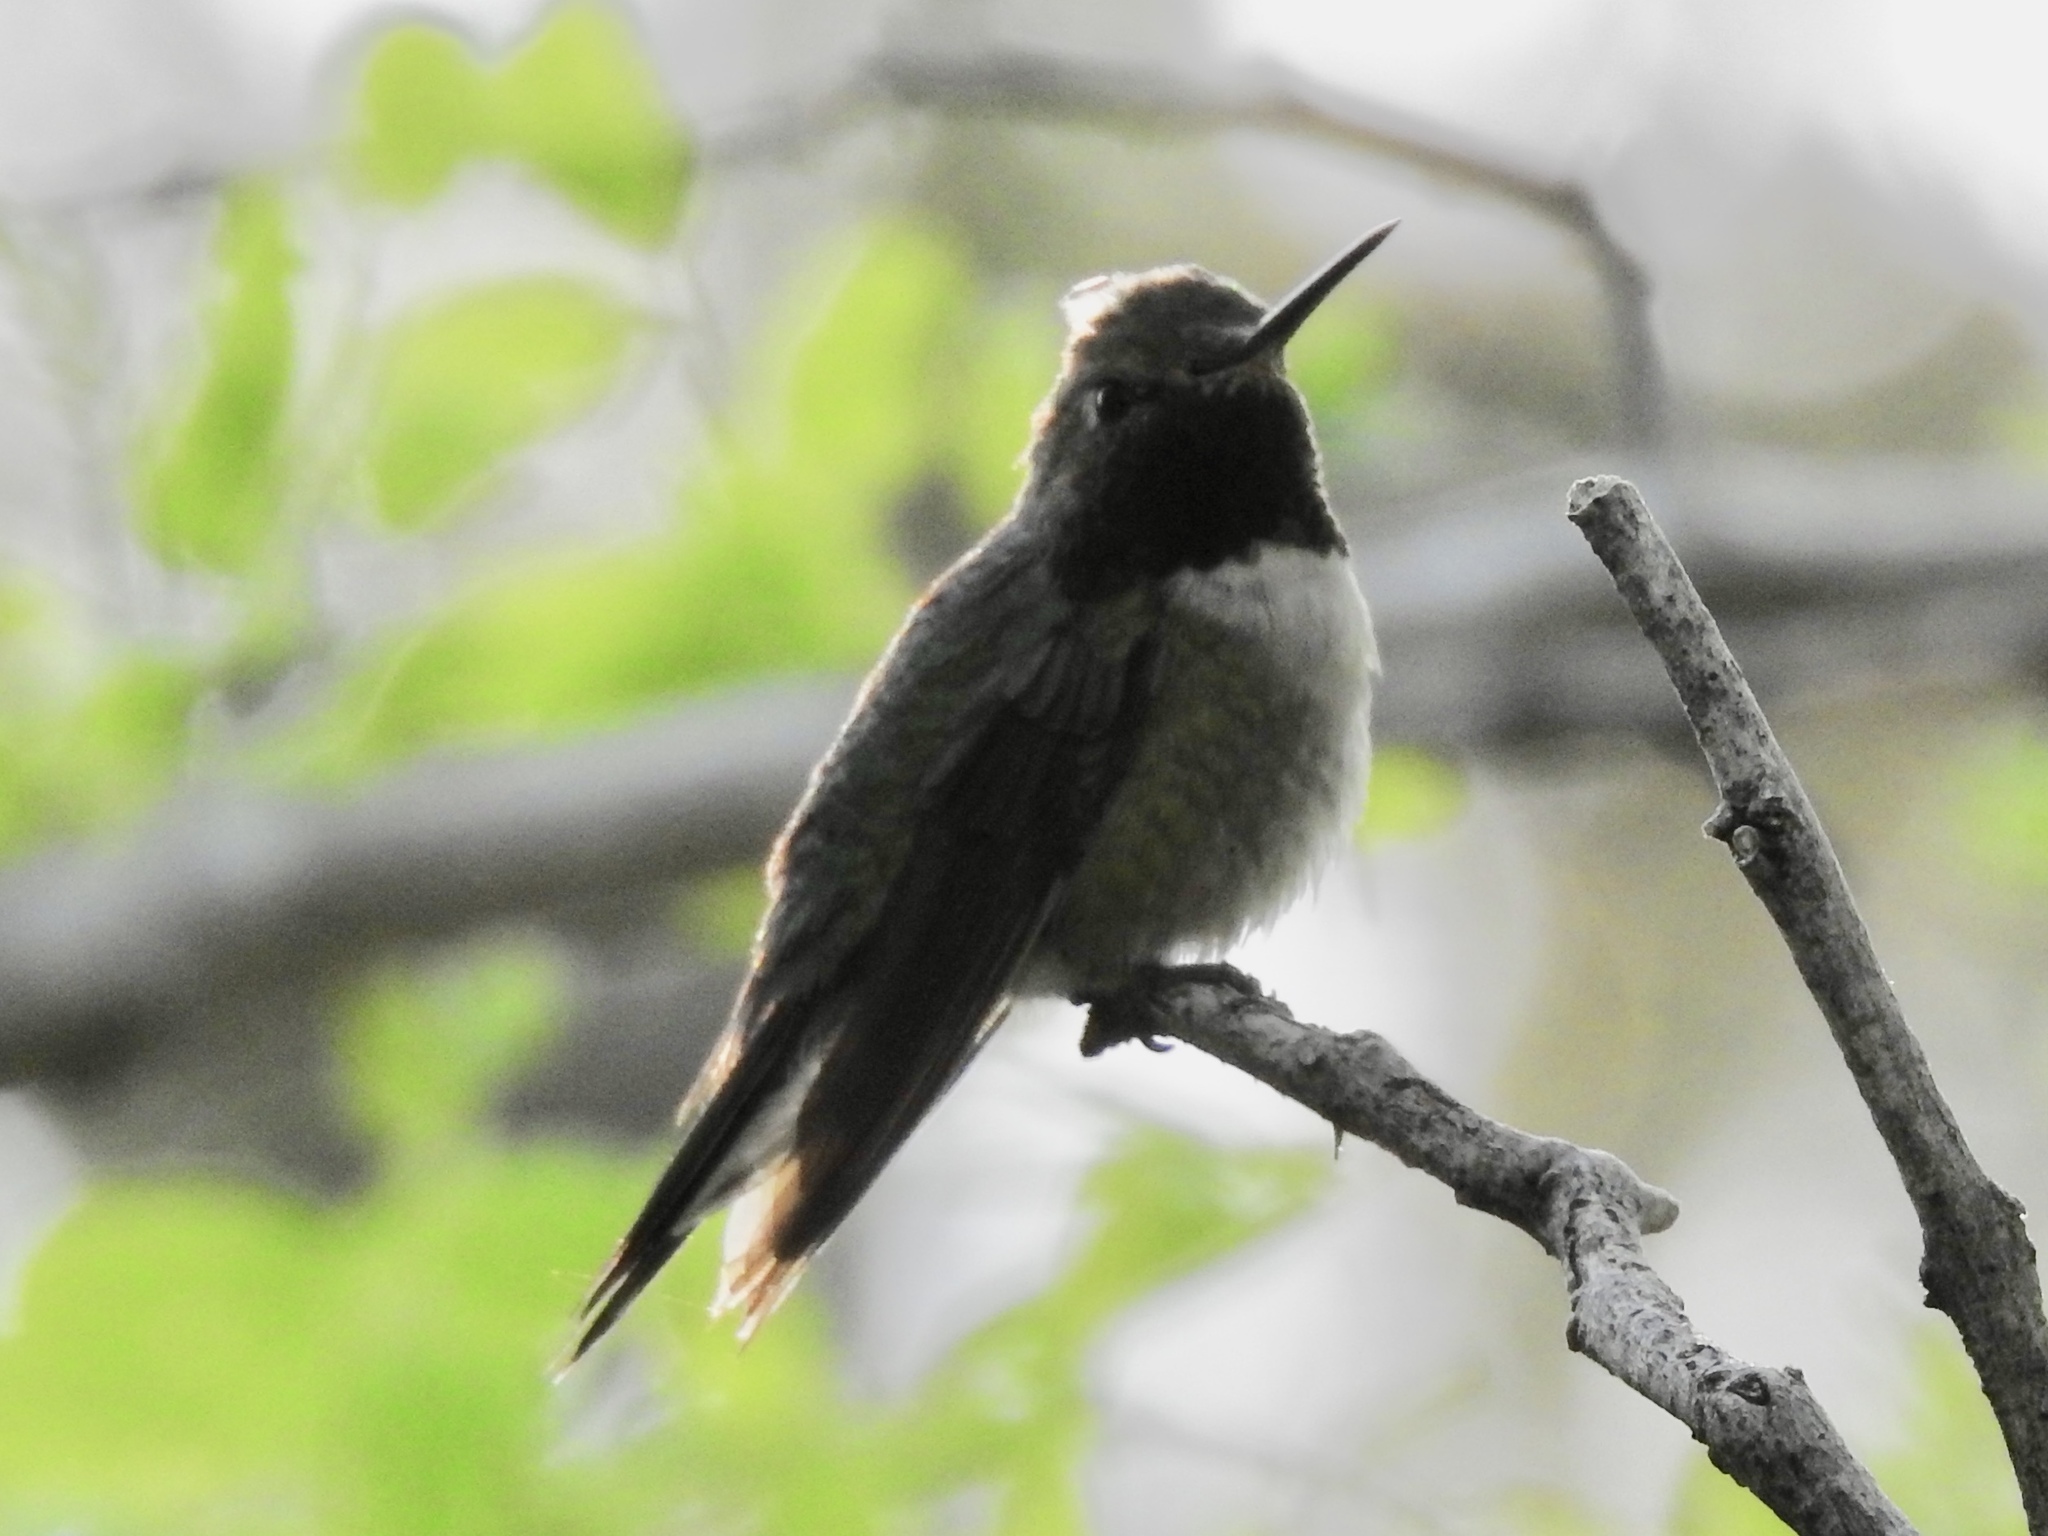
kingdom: Animalia
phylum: Chordata
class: Aves
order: Apodiformes
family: Trochilidae
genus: Selasphorus
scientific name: Selasphorus platycercus
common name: Broad-tailed hummingbird
